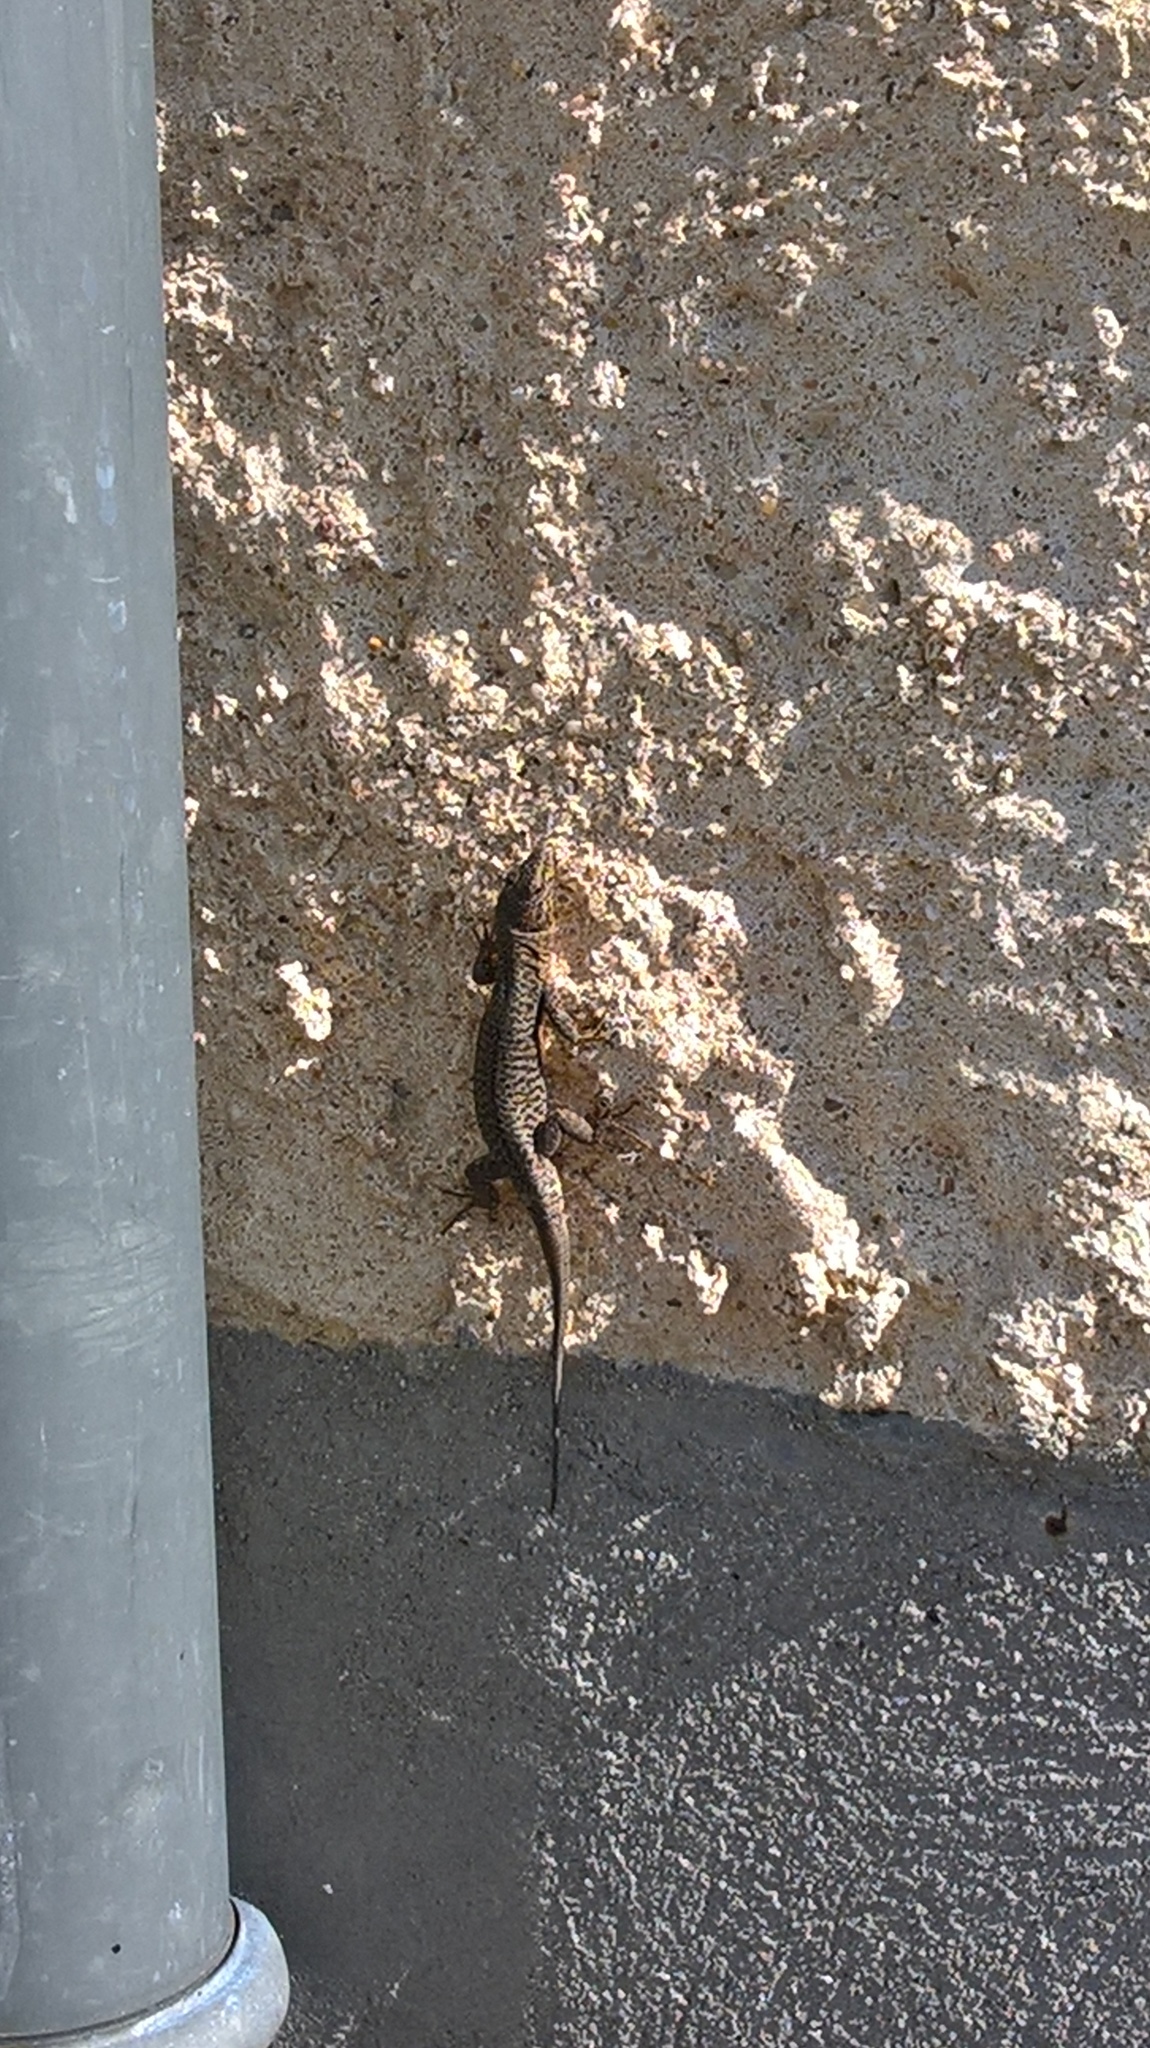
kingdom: Animalia
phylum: Chordata
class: Squamata
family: Lacertidae
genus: Podarcis
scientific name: Podarcis muralis
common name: Common wall lizard
